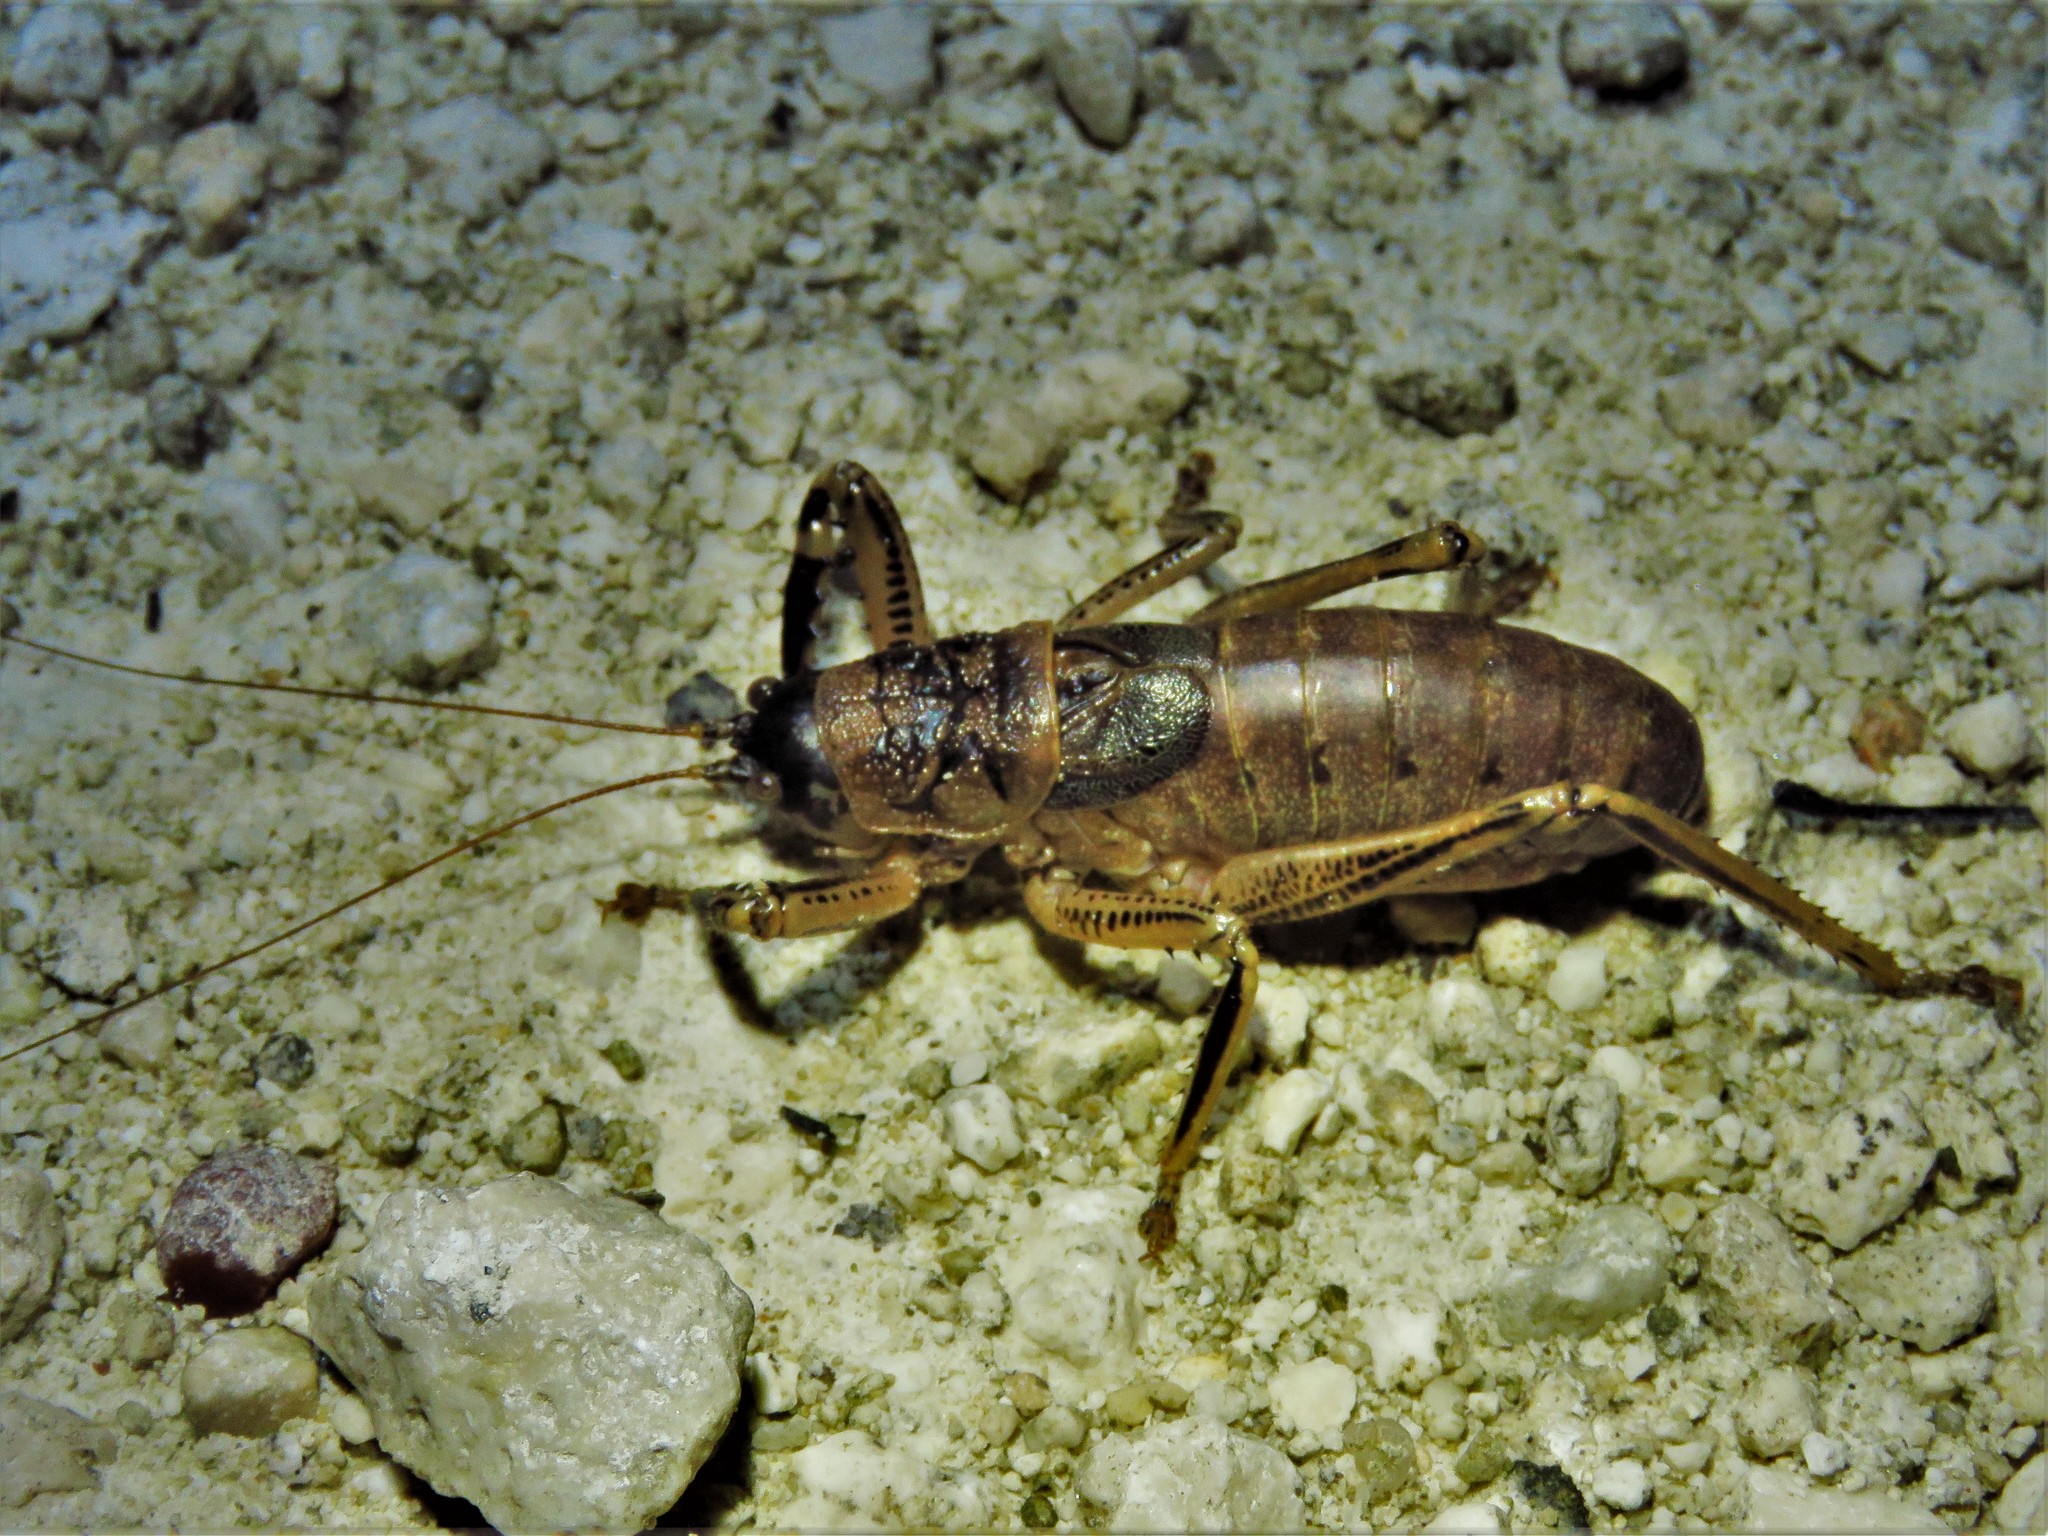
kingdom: Animalia
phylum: Arthropoda
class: Insecta
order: Orthoptera
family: Tettigoniidae
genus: Nesoecia
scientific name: Nesoecia nigrispina
